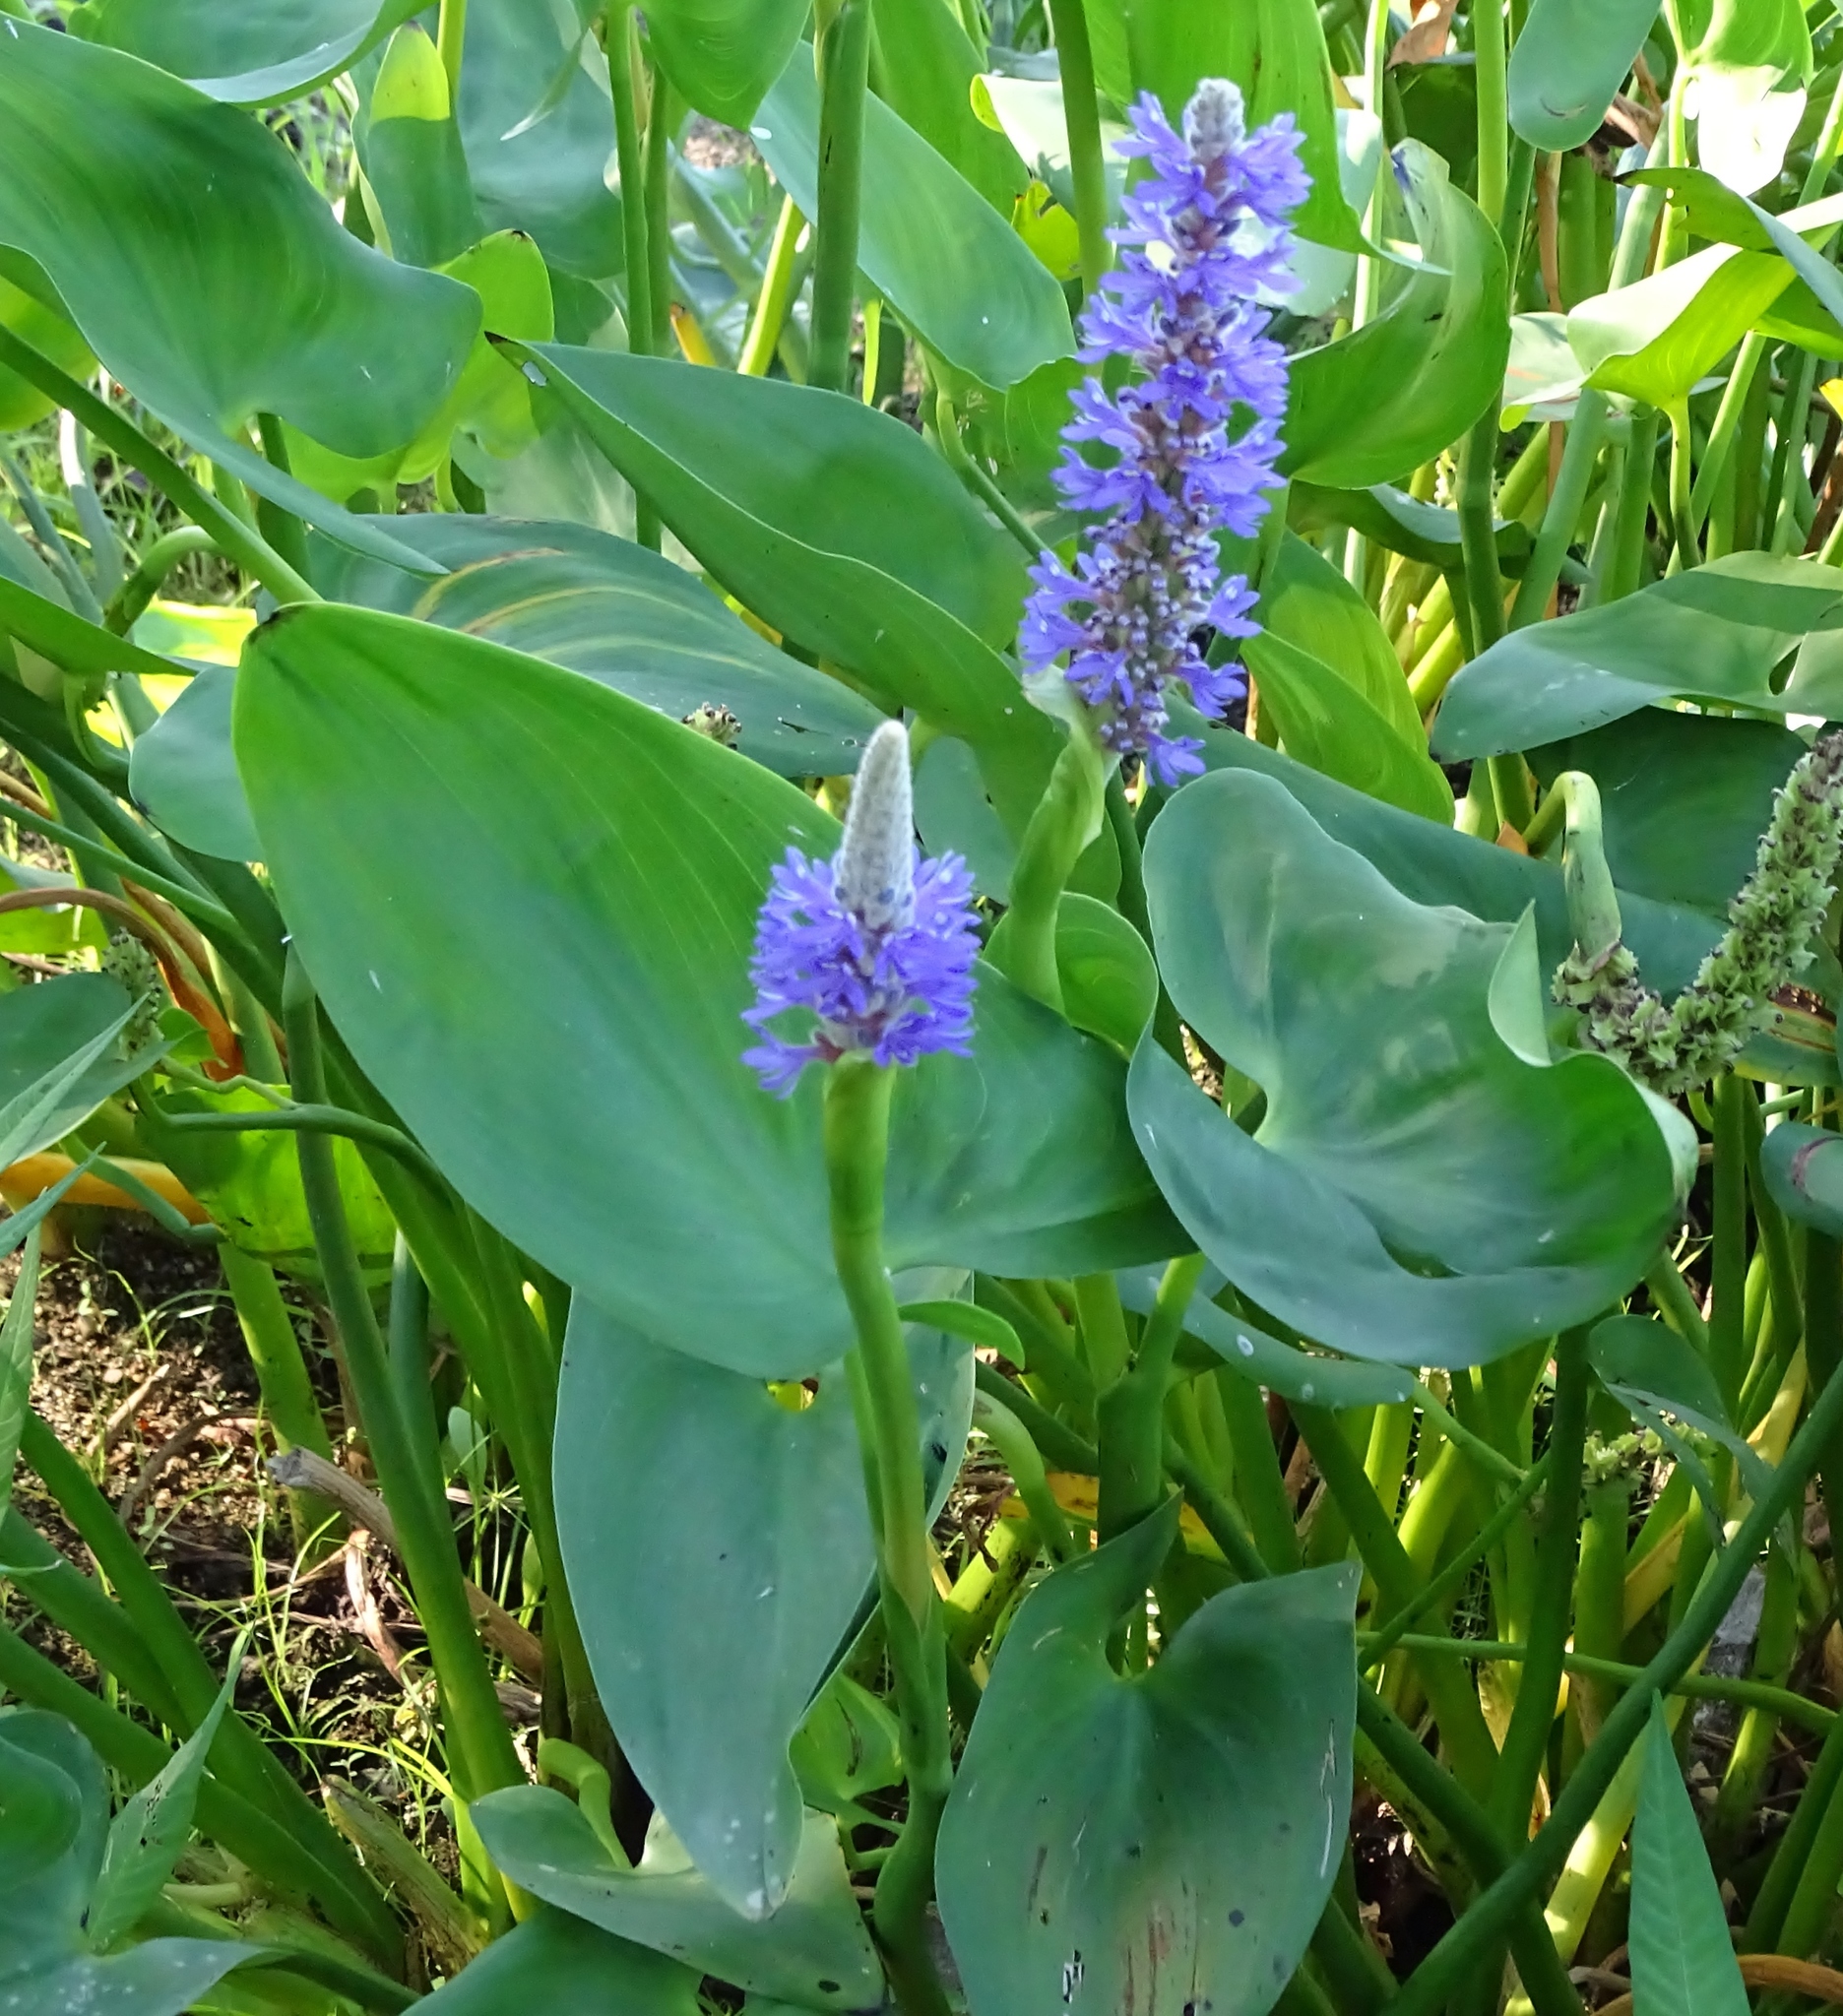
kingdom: Plantae
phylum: Tracheophyta
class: Liliopsida
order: Commelinales
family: Pontederiaceae
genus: Pontederia
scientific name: Pontederia cordata
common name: Pickerelweed
